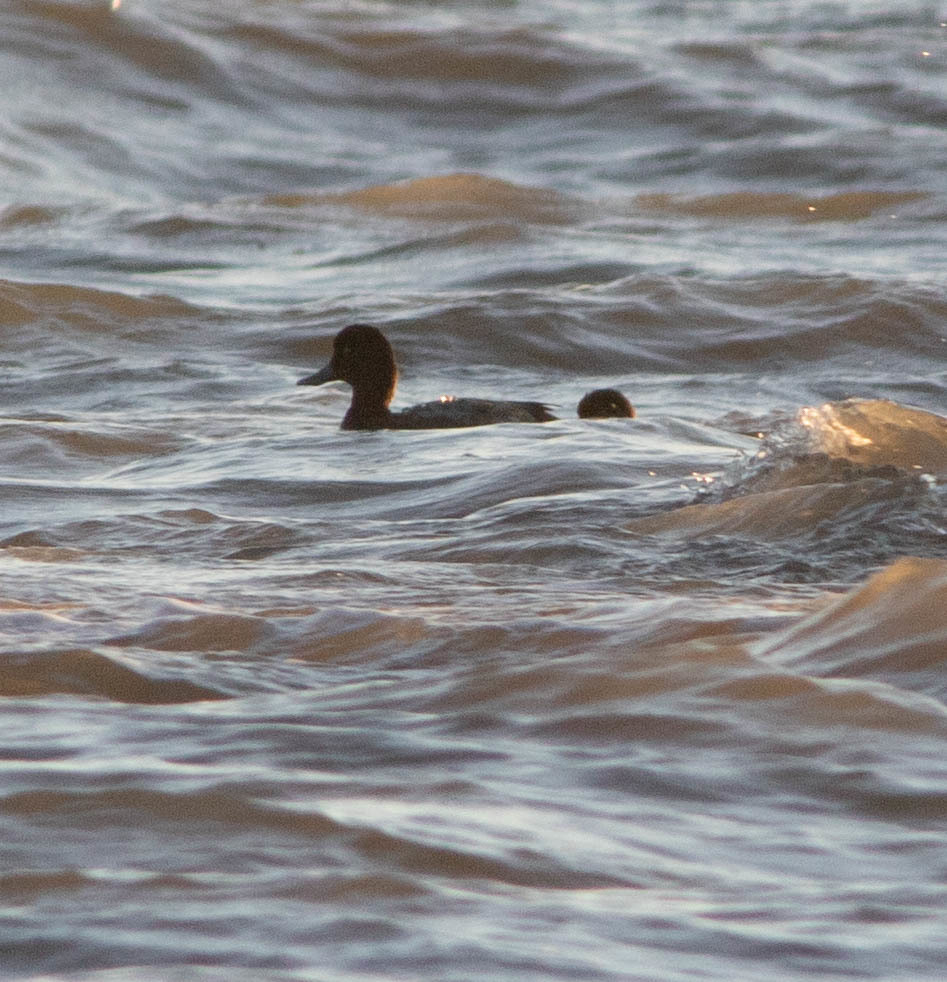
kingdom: Animalia
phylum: Chordata
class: Aves
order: Anseriformes
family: Anatidae
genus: Aythya
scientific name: Aythya marila
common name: Greater scaup
